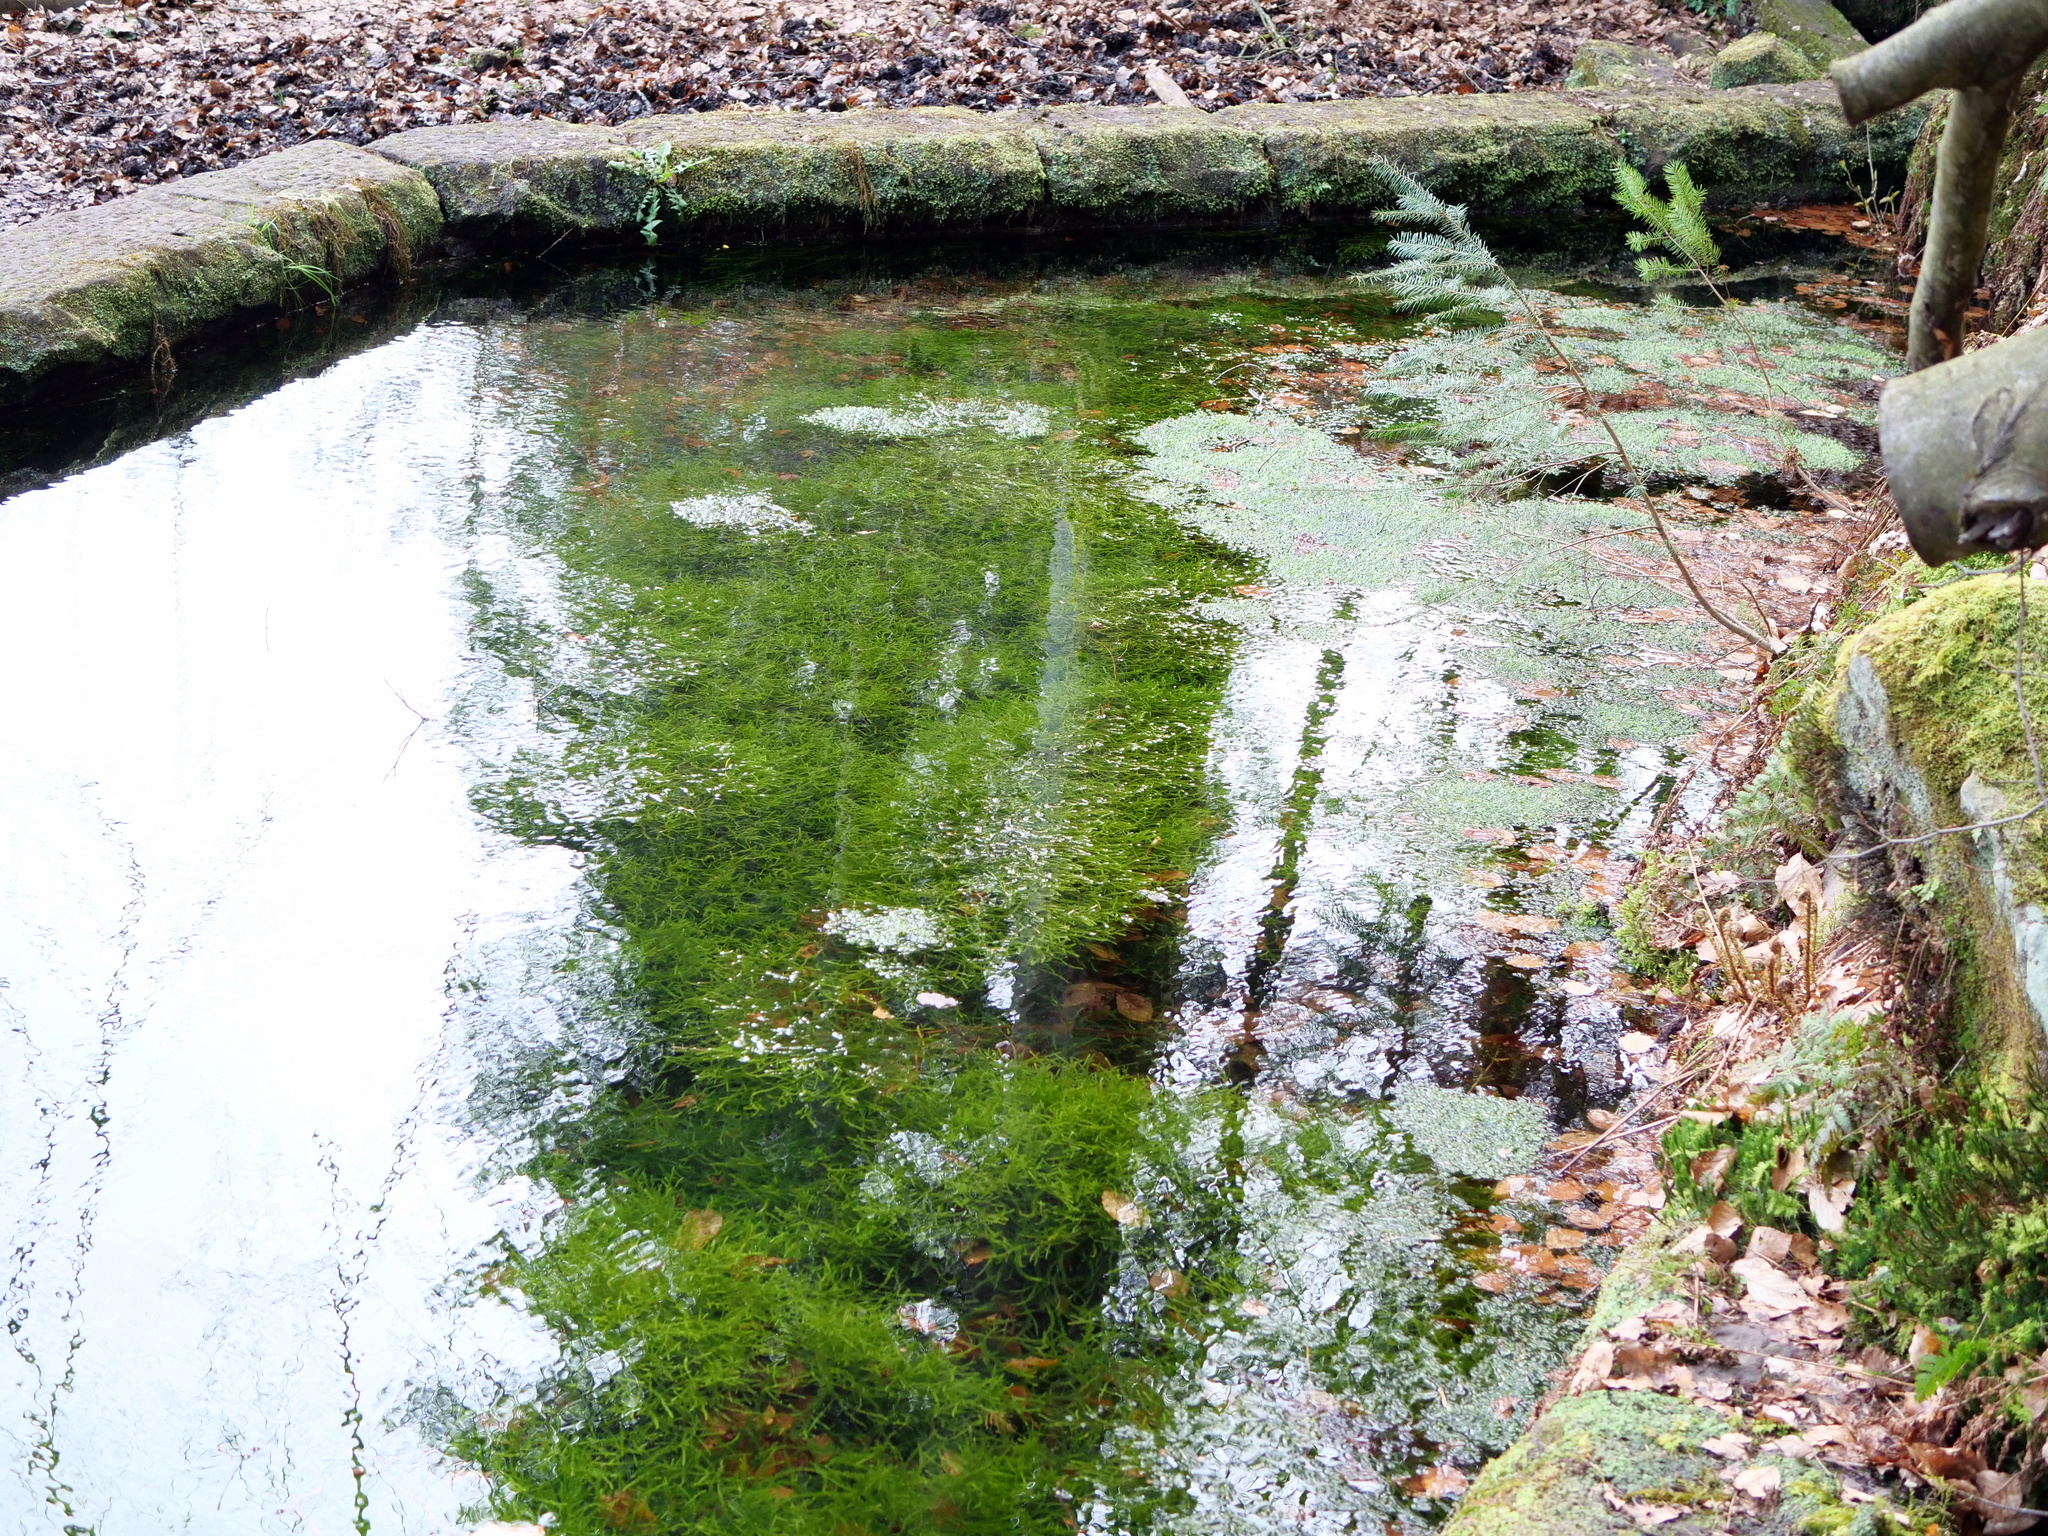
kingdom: Plantae
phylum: Bryophyta
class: Bryopsida
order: Hypnales
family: Fontinalaceae
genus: Fontinalis
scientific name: Fontinalis antipyretica
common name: Greater water-moss
